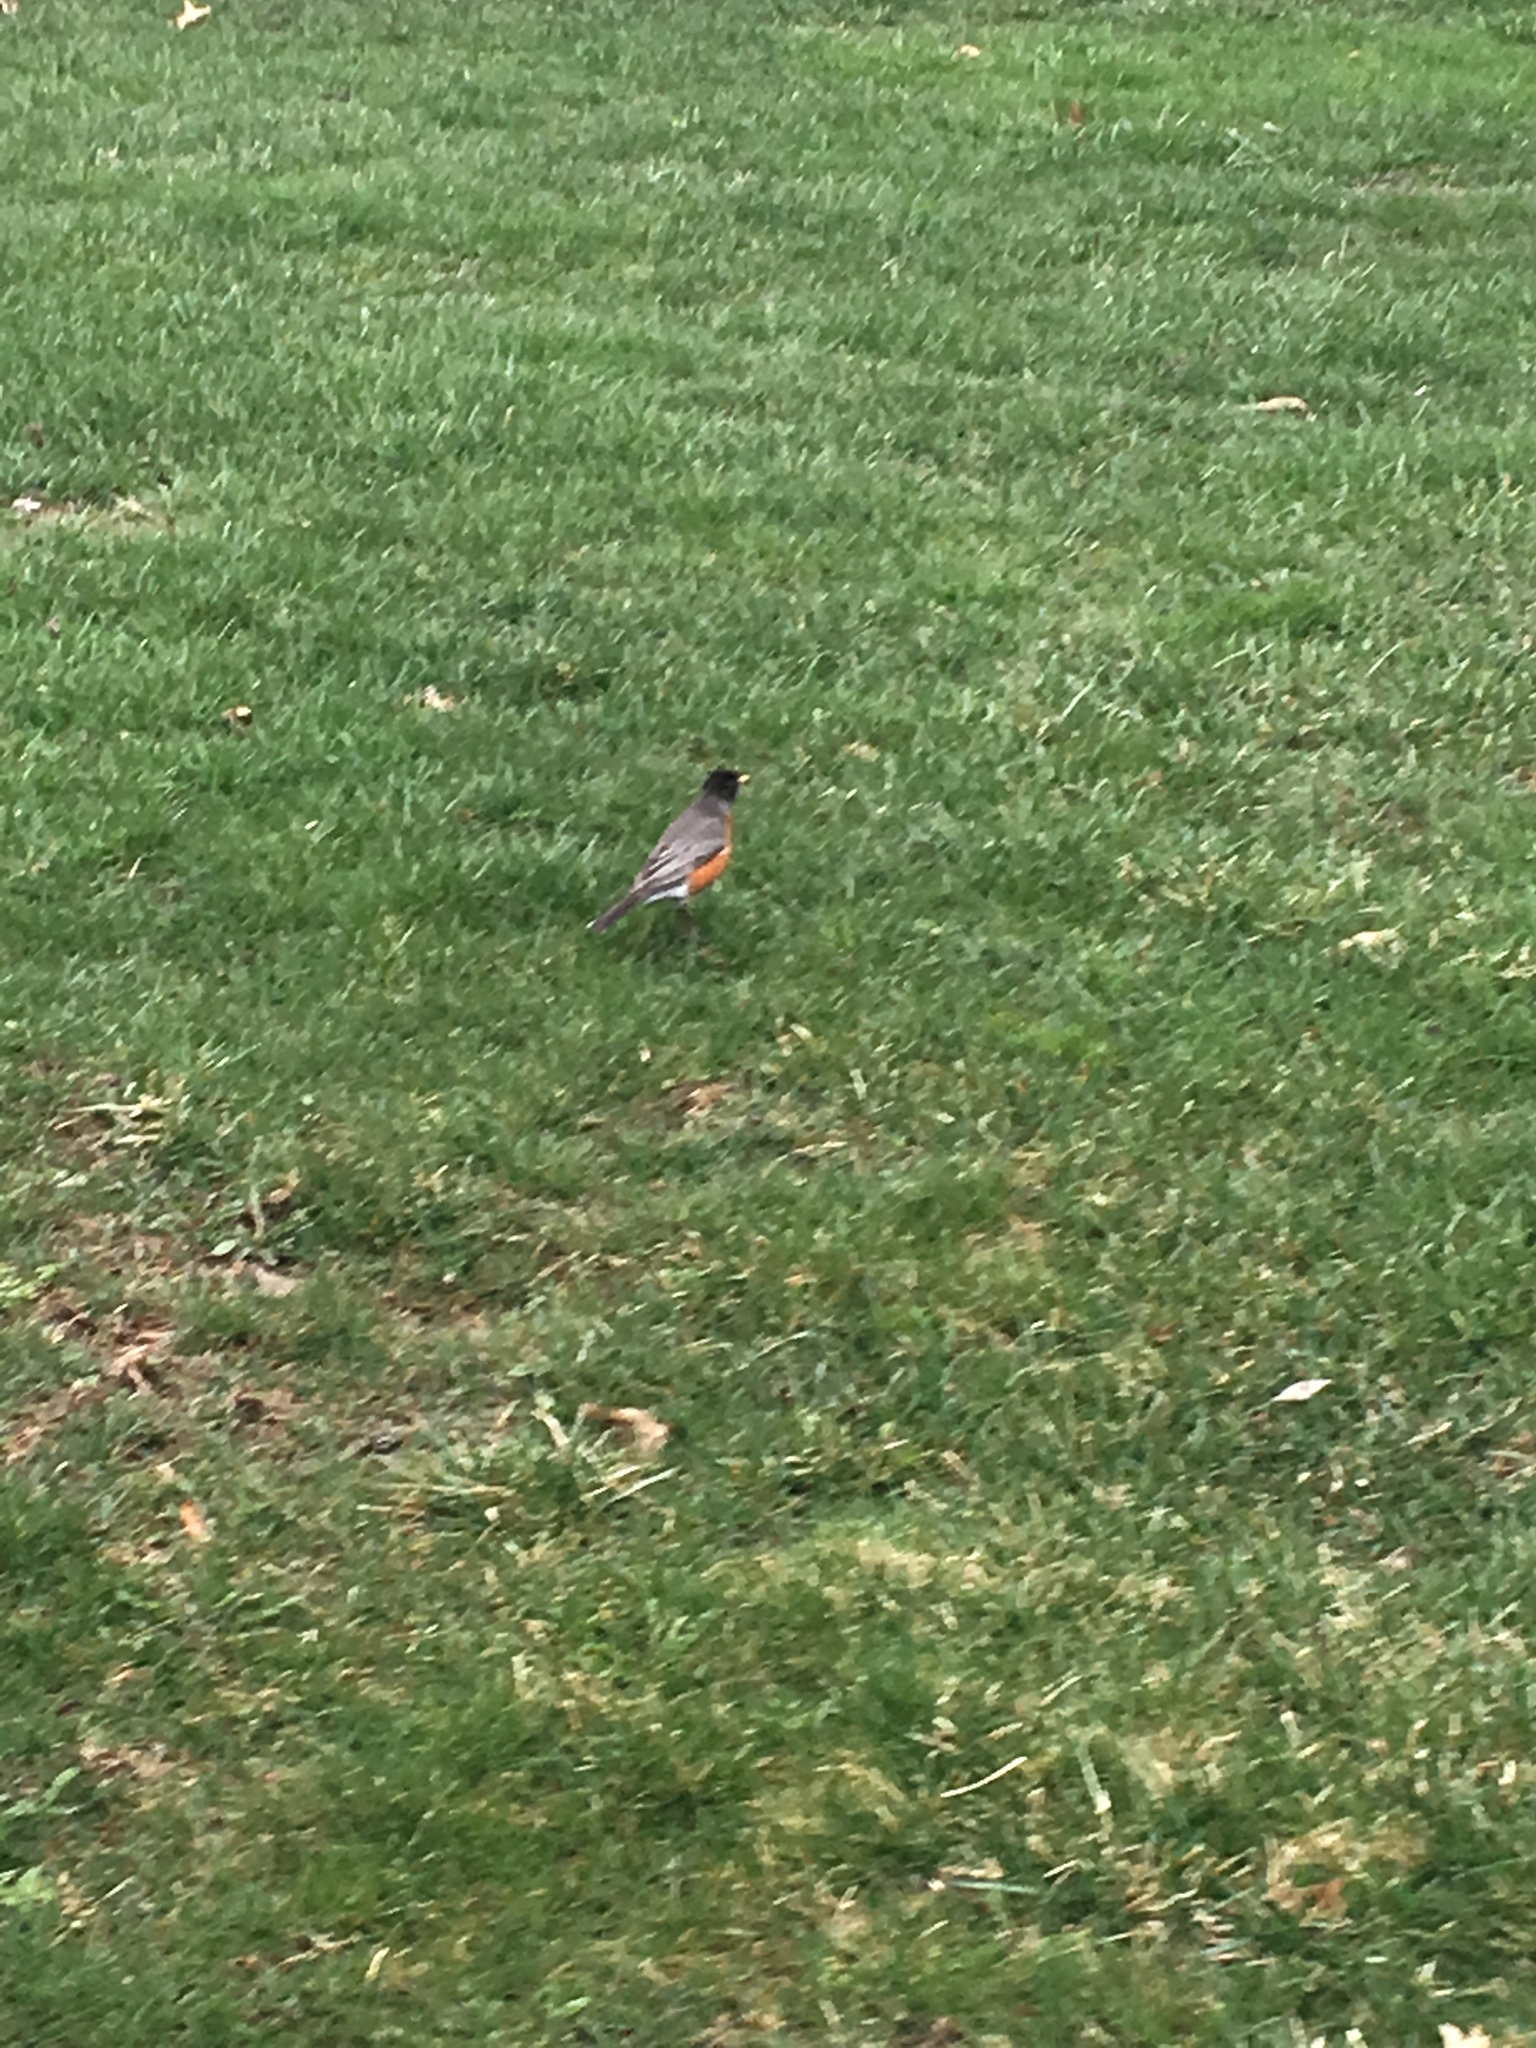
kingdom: Animalia
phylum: Chordata
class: Aves
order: Passeriformes
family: Turdidae
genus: Turdus
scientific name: Turdus migratorius
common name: American robin
